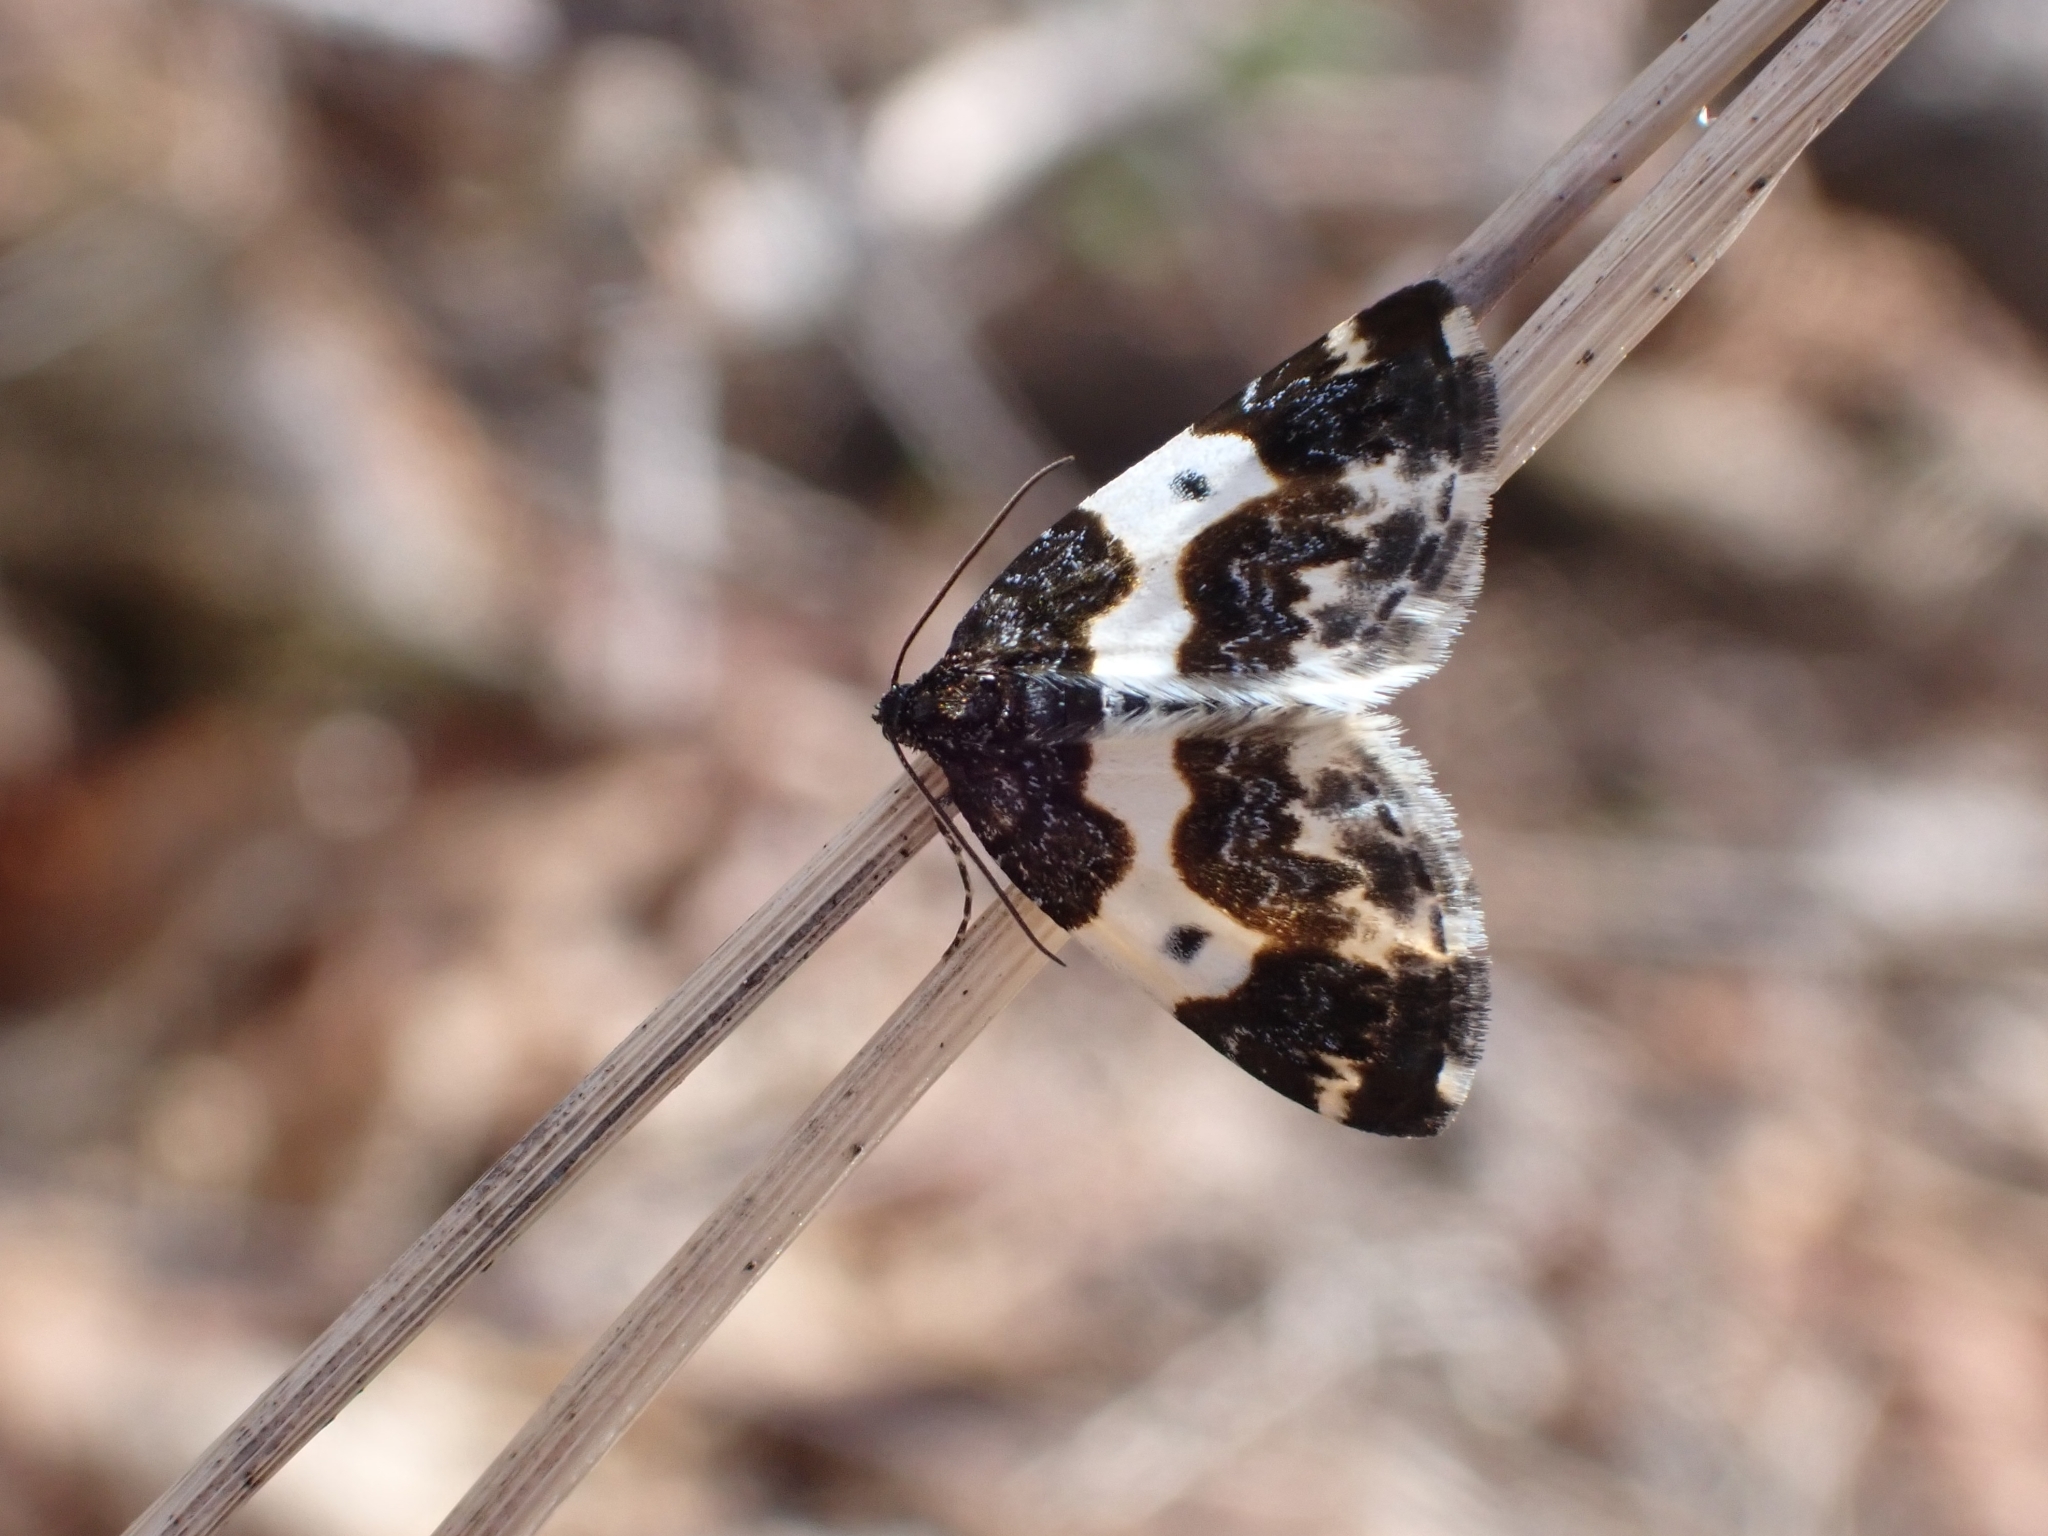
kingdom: Animalia
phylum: Arthropoda
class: Insecta
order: Lepidoptera
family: Geometridae
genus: Mesoleuca
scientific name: Mesoleuca gratulata
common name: Half-white carpet moth
